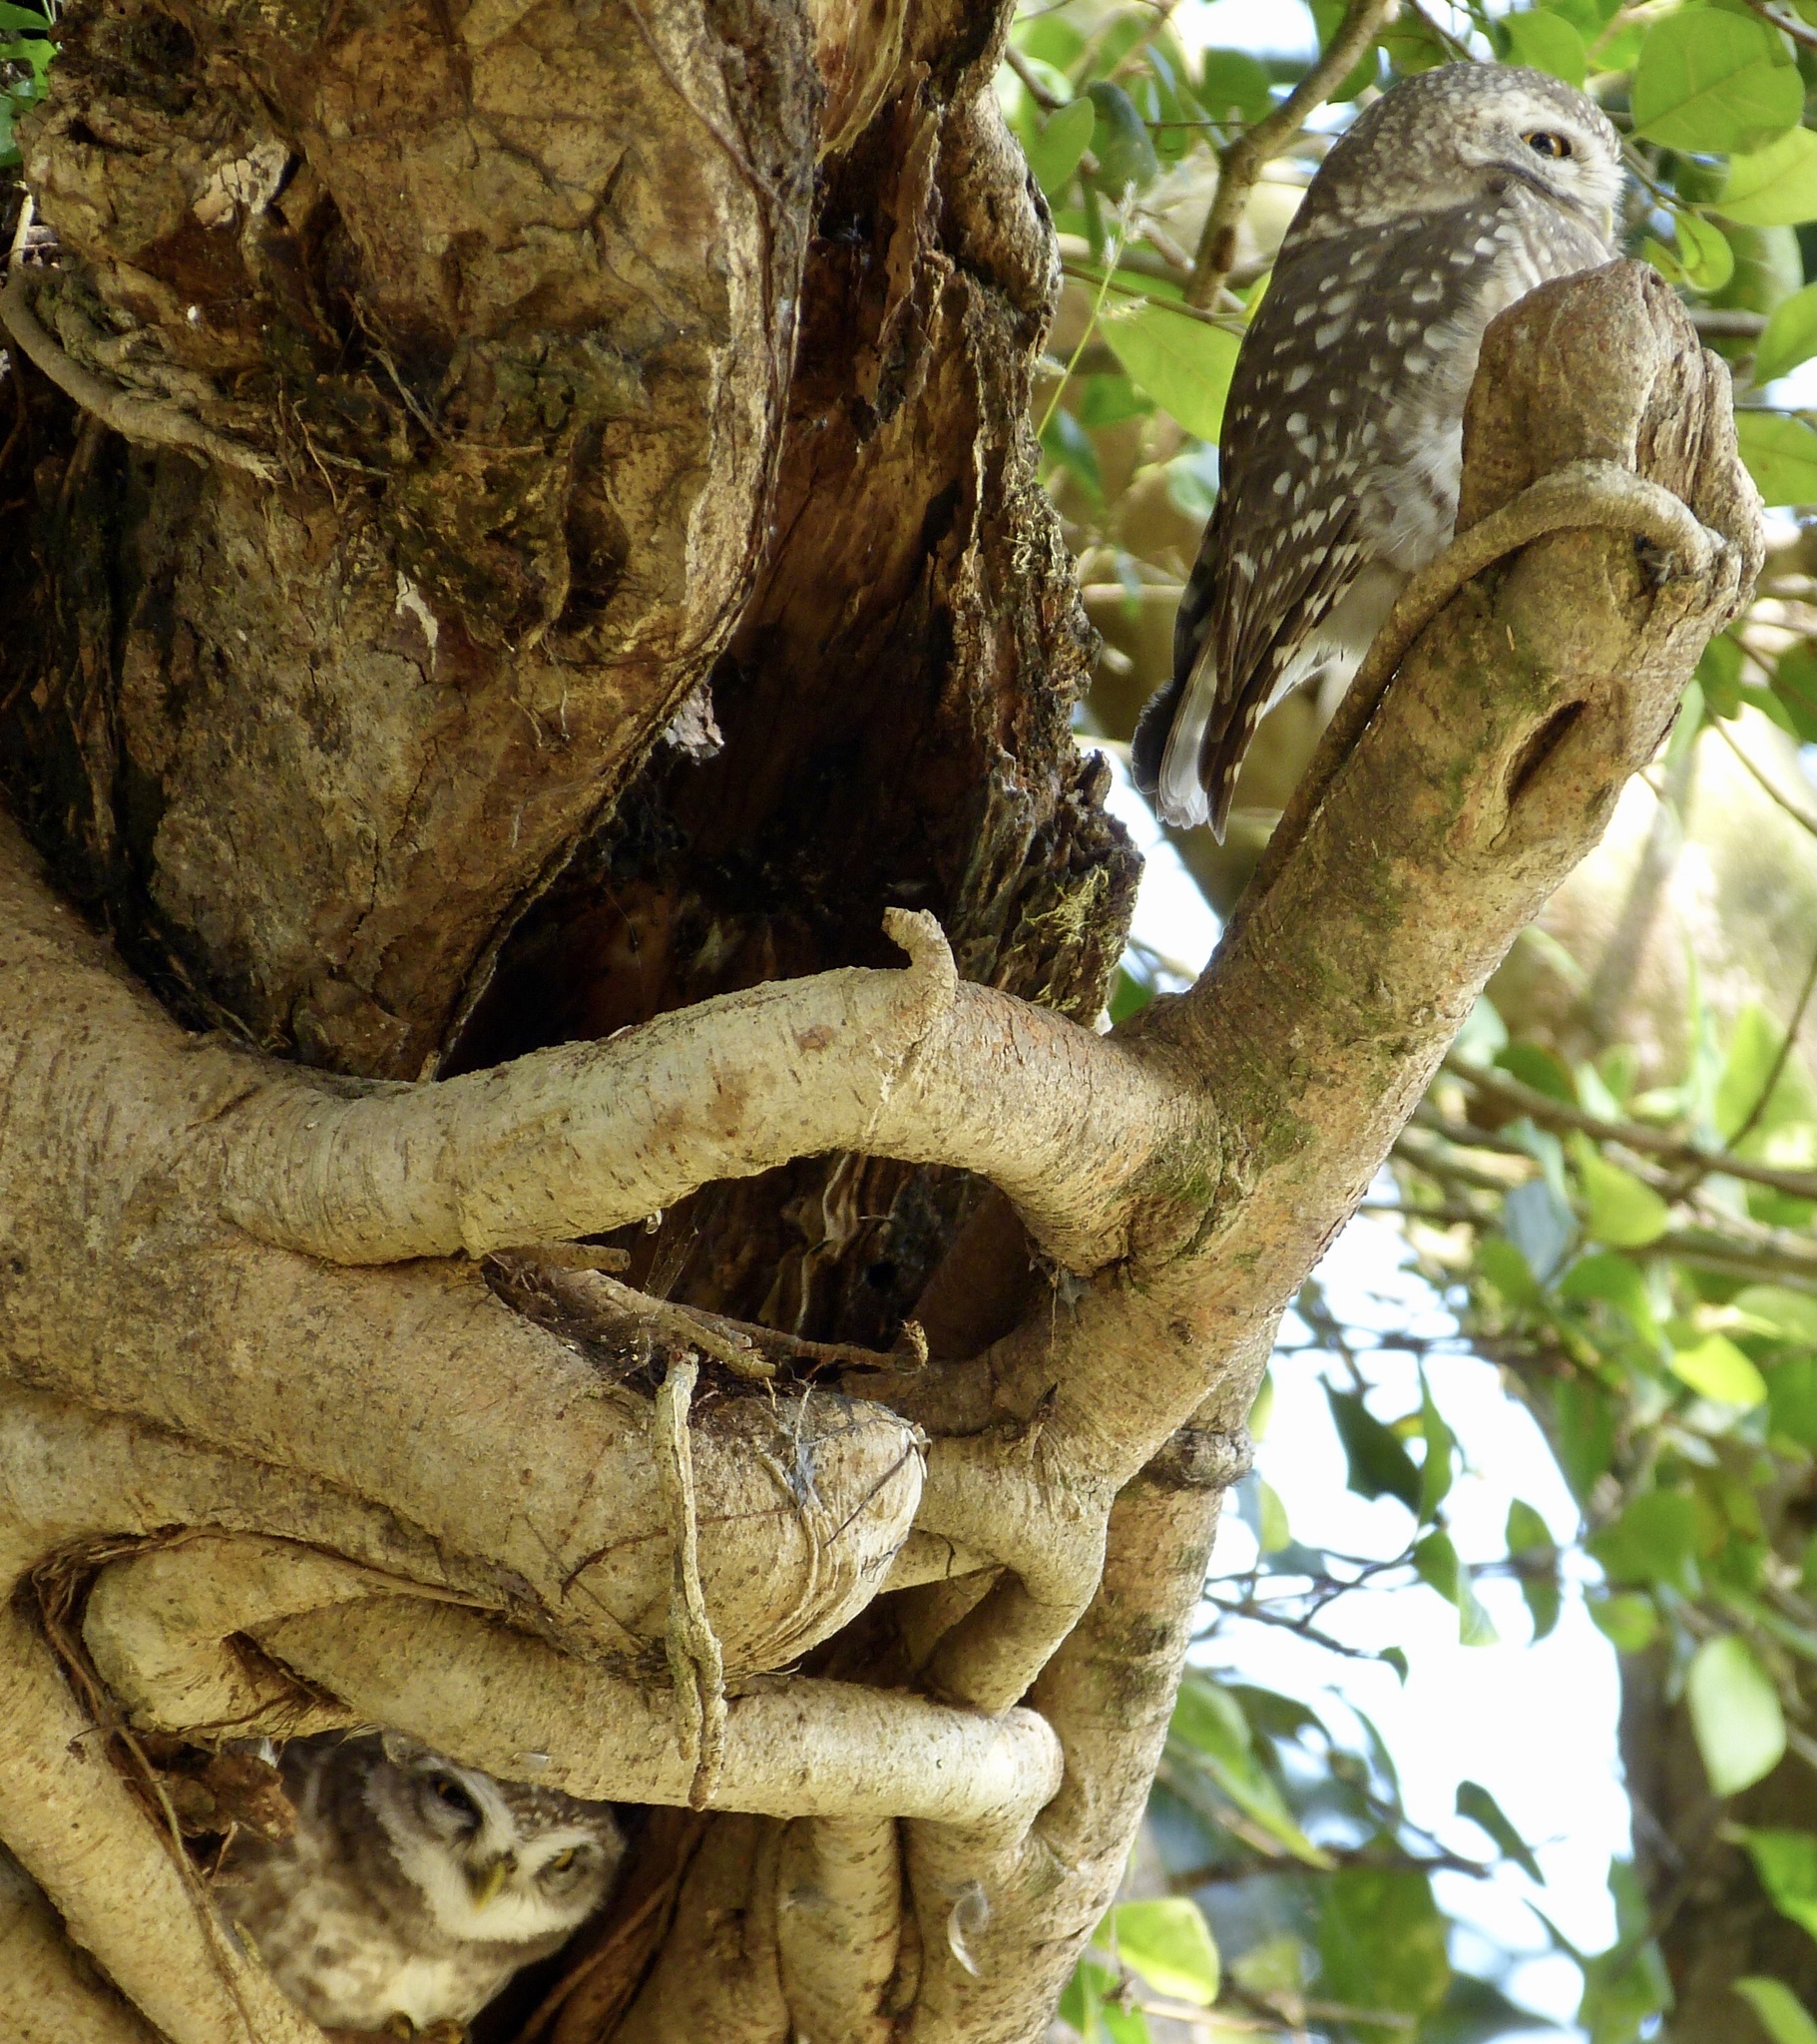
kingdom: Animalia
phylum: Chordata
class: Aves
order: Strigiformes
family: Strigidae
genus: Athene
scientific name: Athene brama
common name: Spotted owlet
